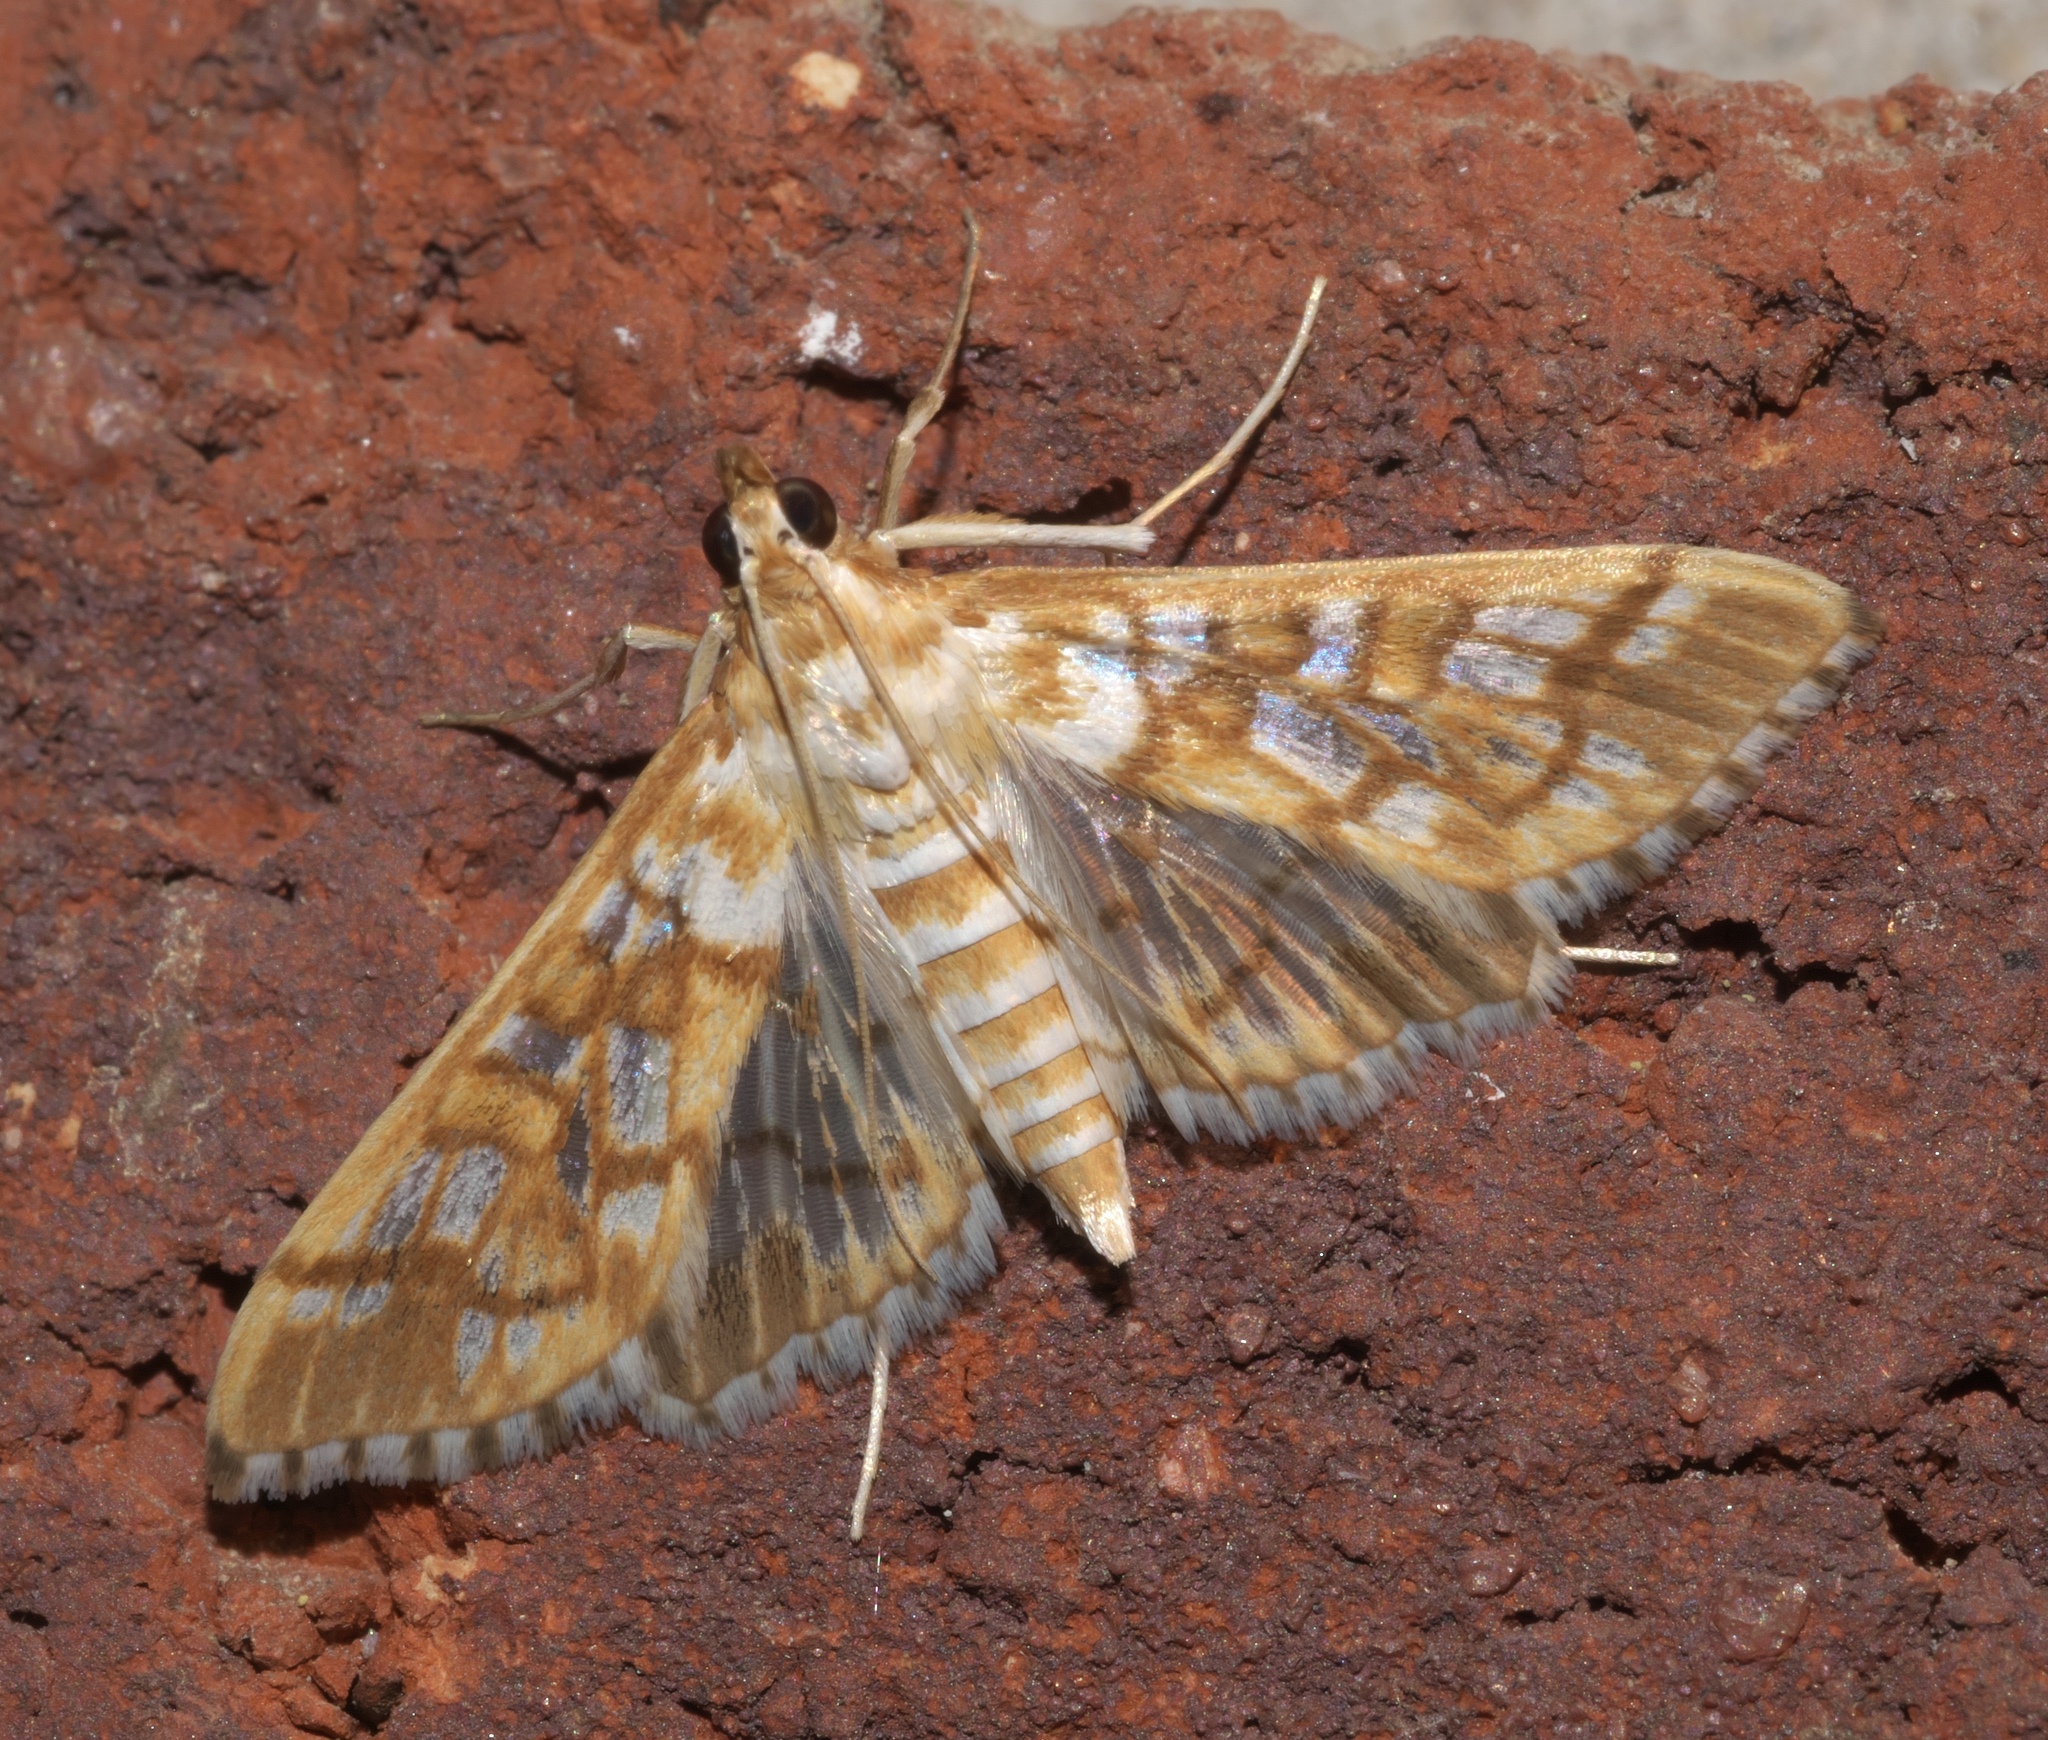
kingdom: Animalia
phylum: Arthropoda
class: Insecta
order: Lepidoptera
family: Crambidae
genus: Epipagis
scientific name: Epipagis fenestralis
